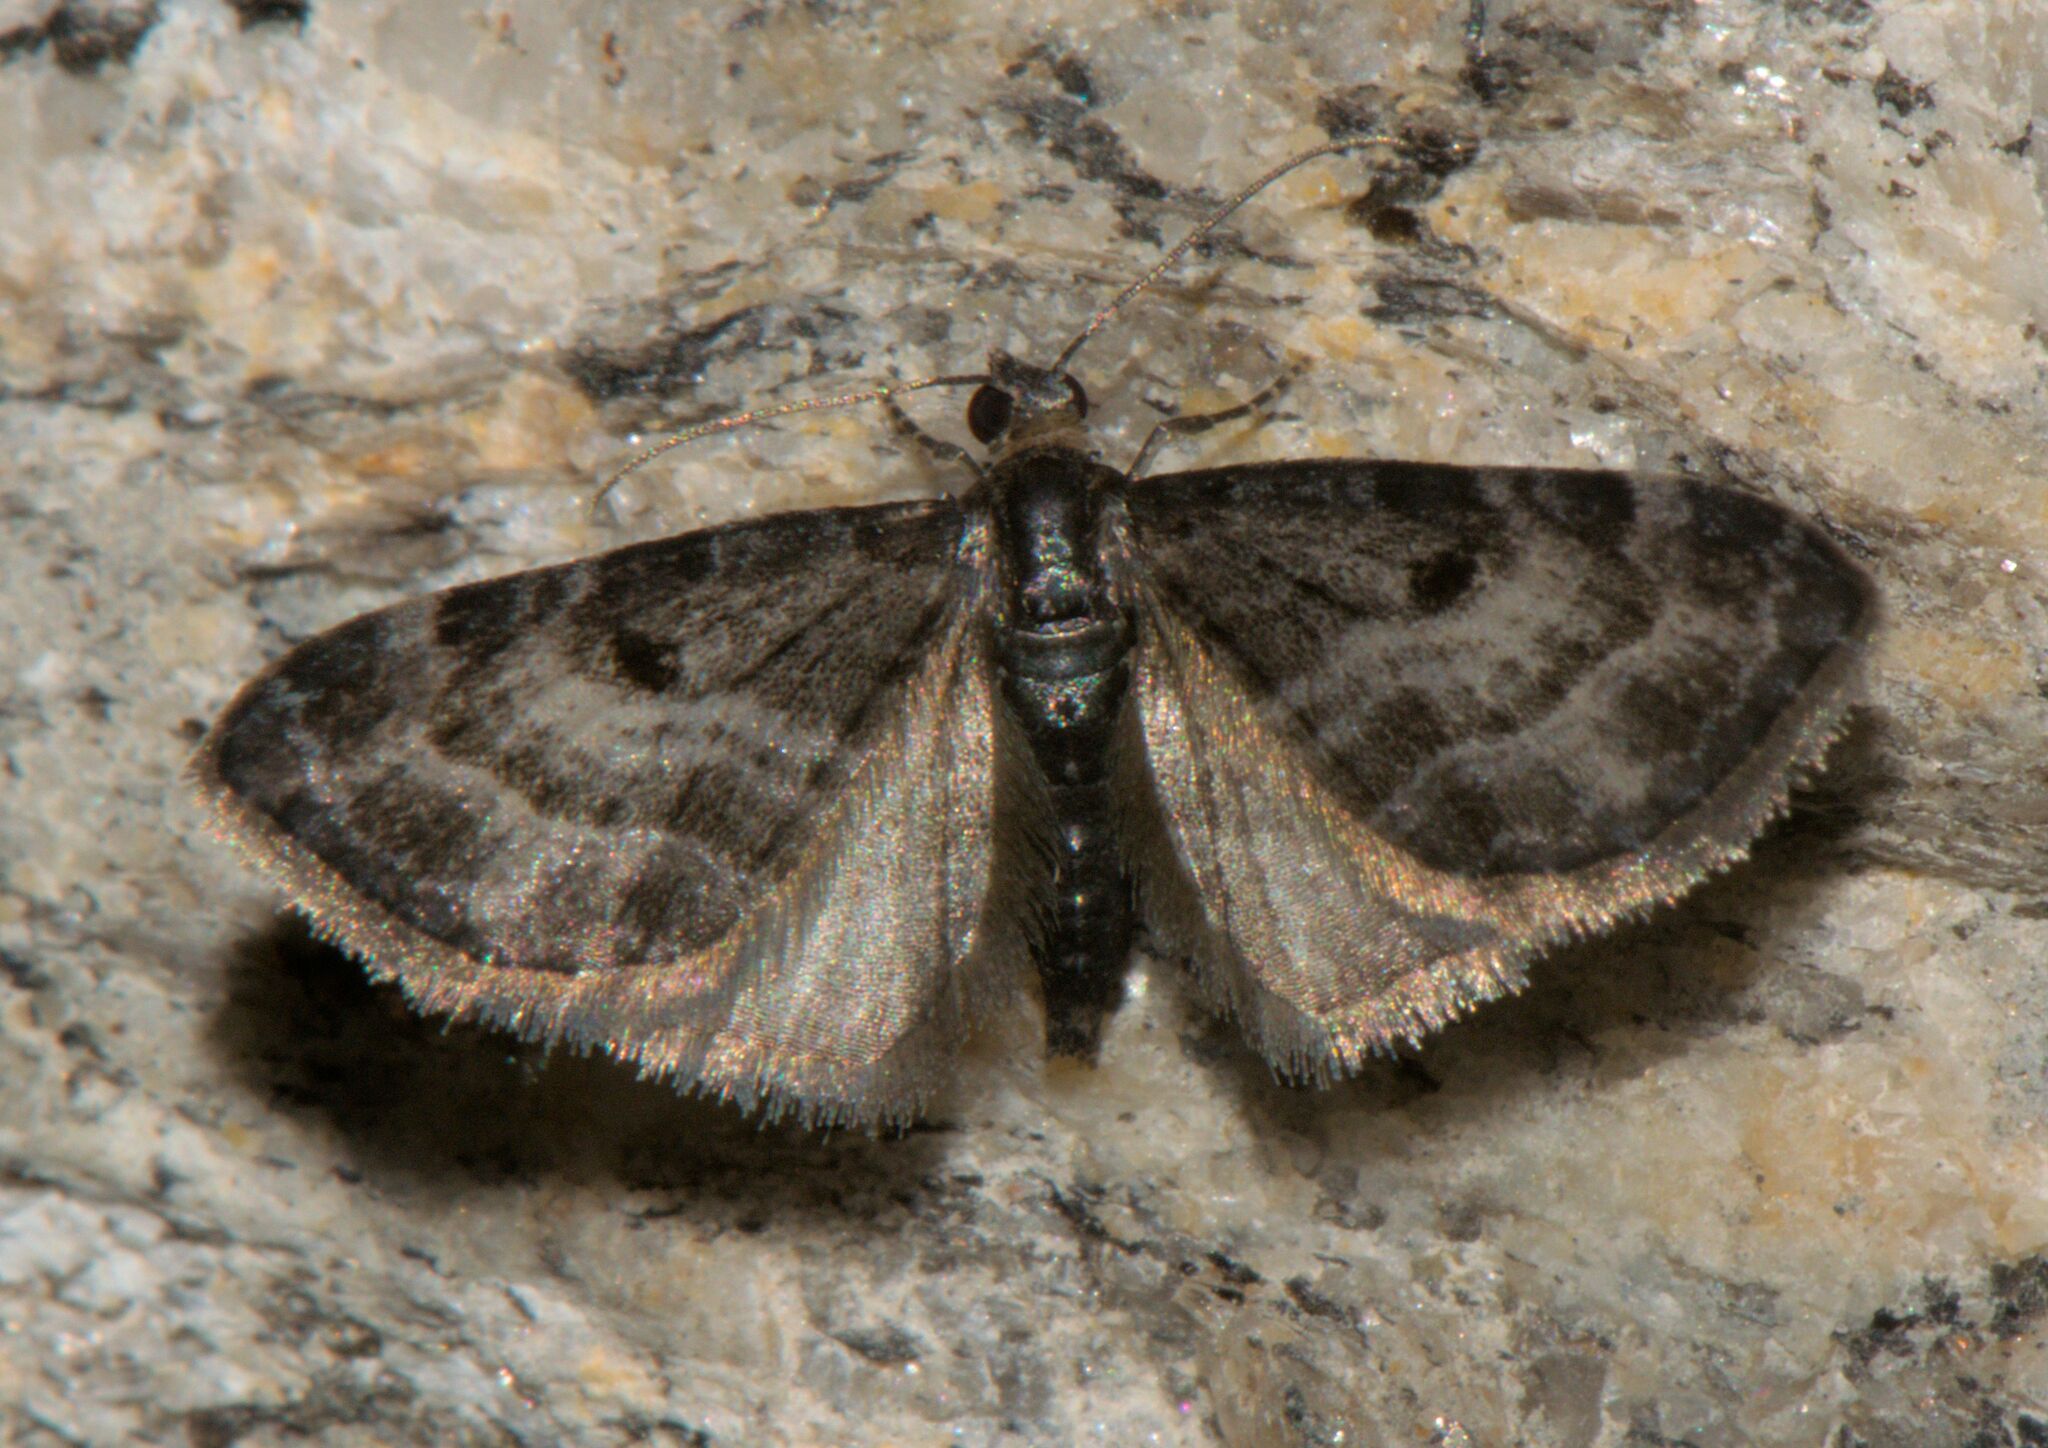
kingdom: Animalia
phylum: Arthropoda
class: Insecta
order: Lepidoptera
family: Geometridae
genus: Eupithecia
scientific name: Eupithecia atrisignis
